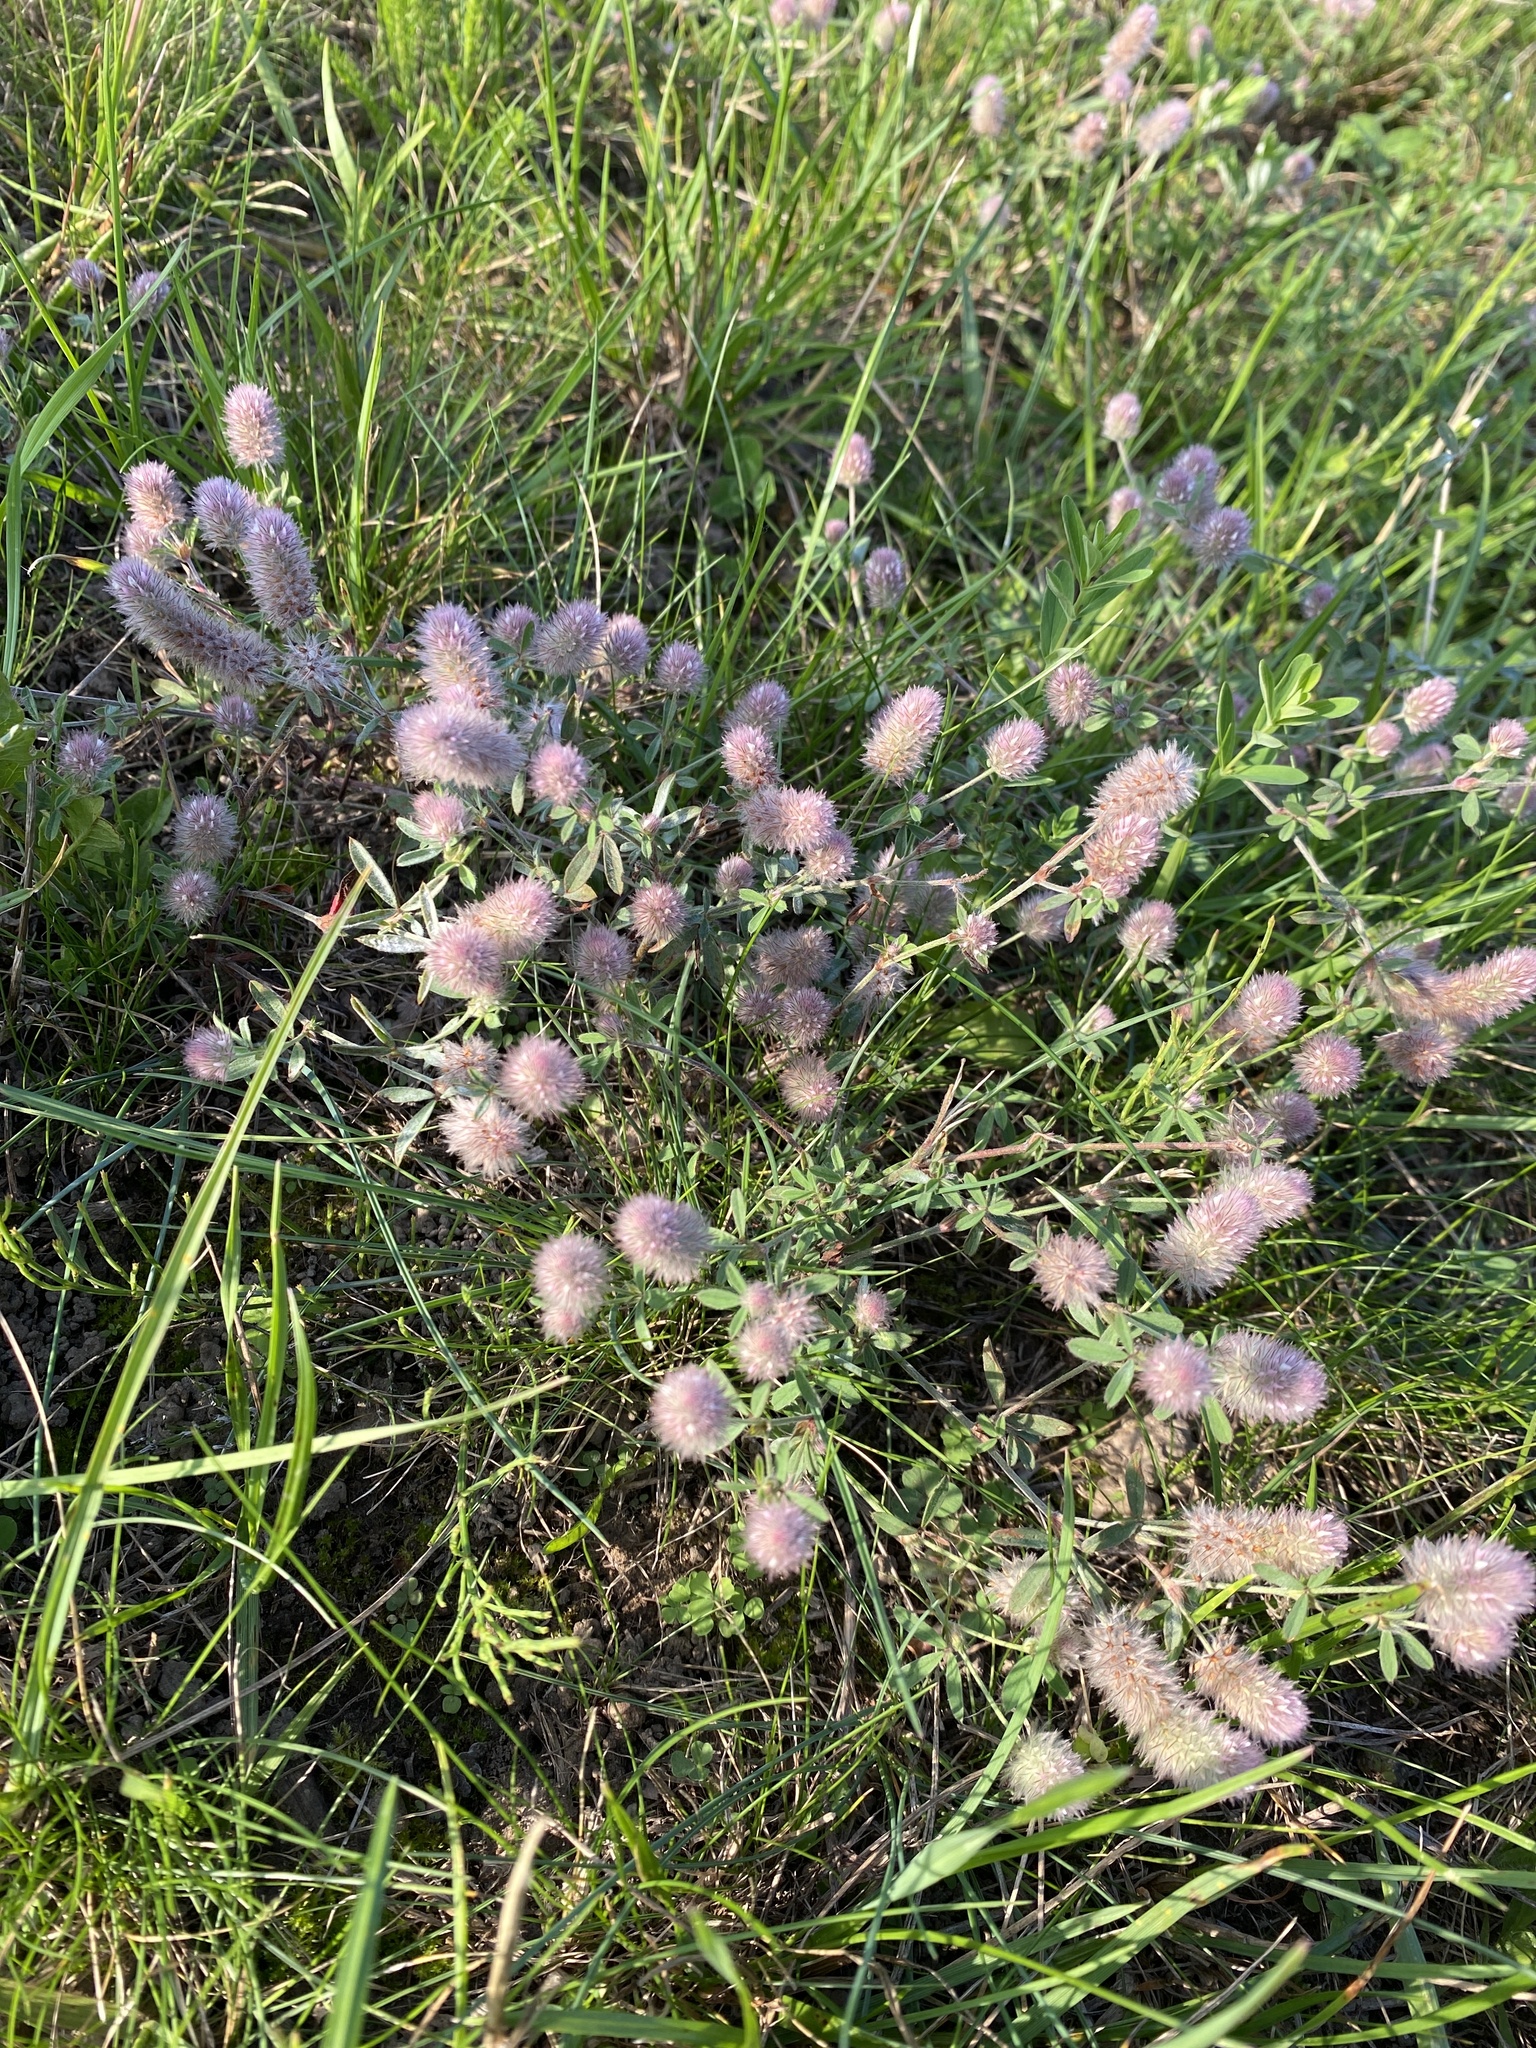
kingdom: Plantae
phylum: Tracheophyta
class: Magnoliopsida
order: Fabales
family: Fabaceae
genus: Trifolium
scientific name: Trifolium arvense
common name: Hare's-foot clover
